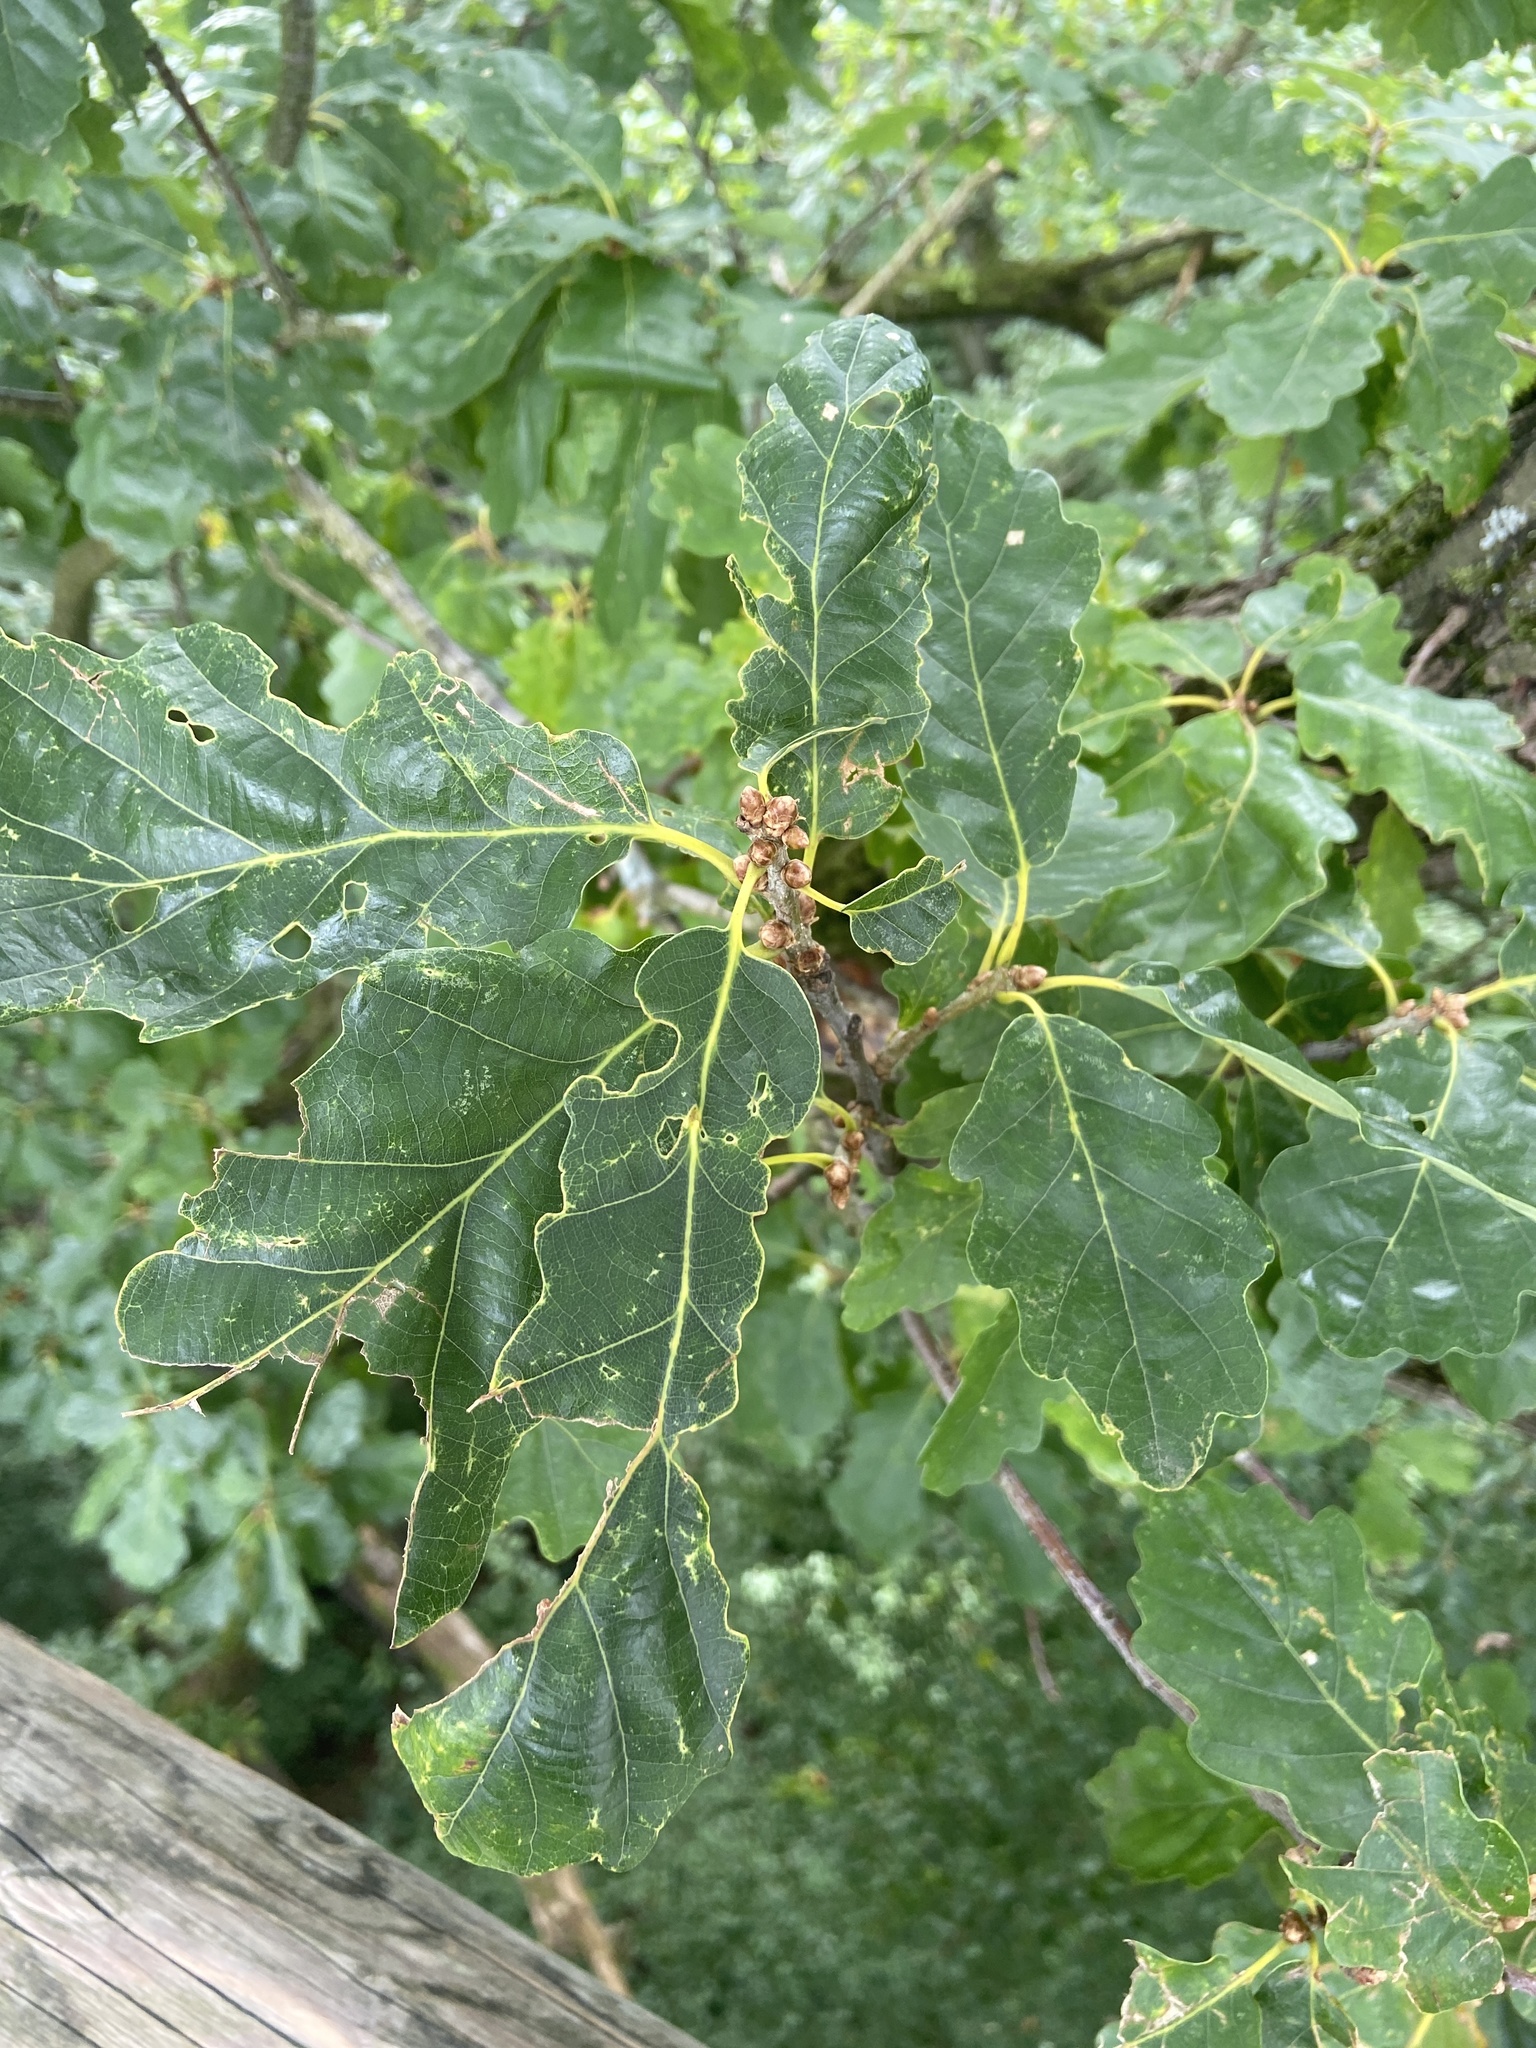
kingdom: Plantae
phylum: Tracheophyta
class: Magnoliopsida
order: Fagales
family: Fagaceae
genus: Quercus
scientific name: Quercus petraea
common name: Sessile oak
